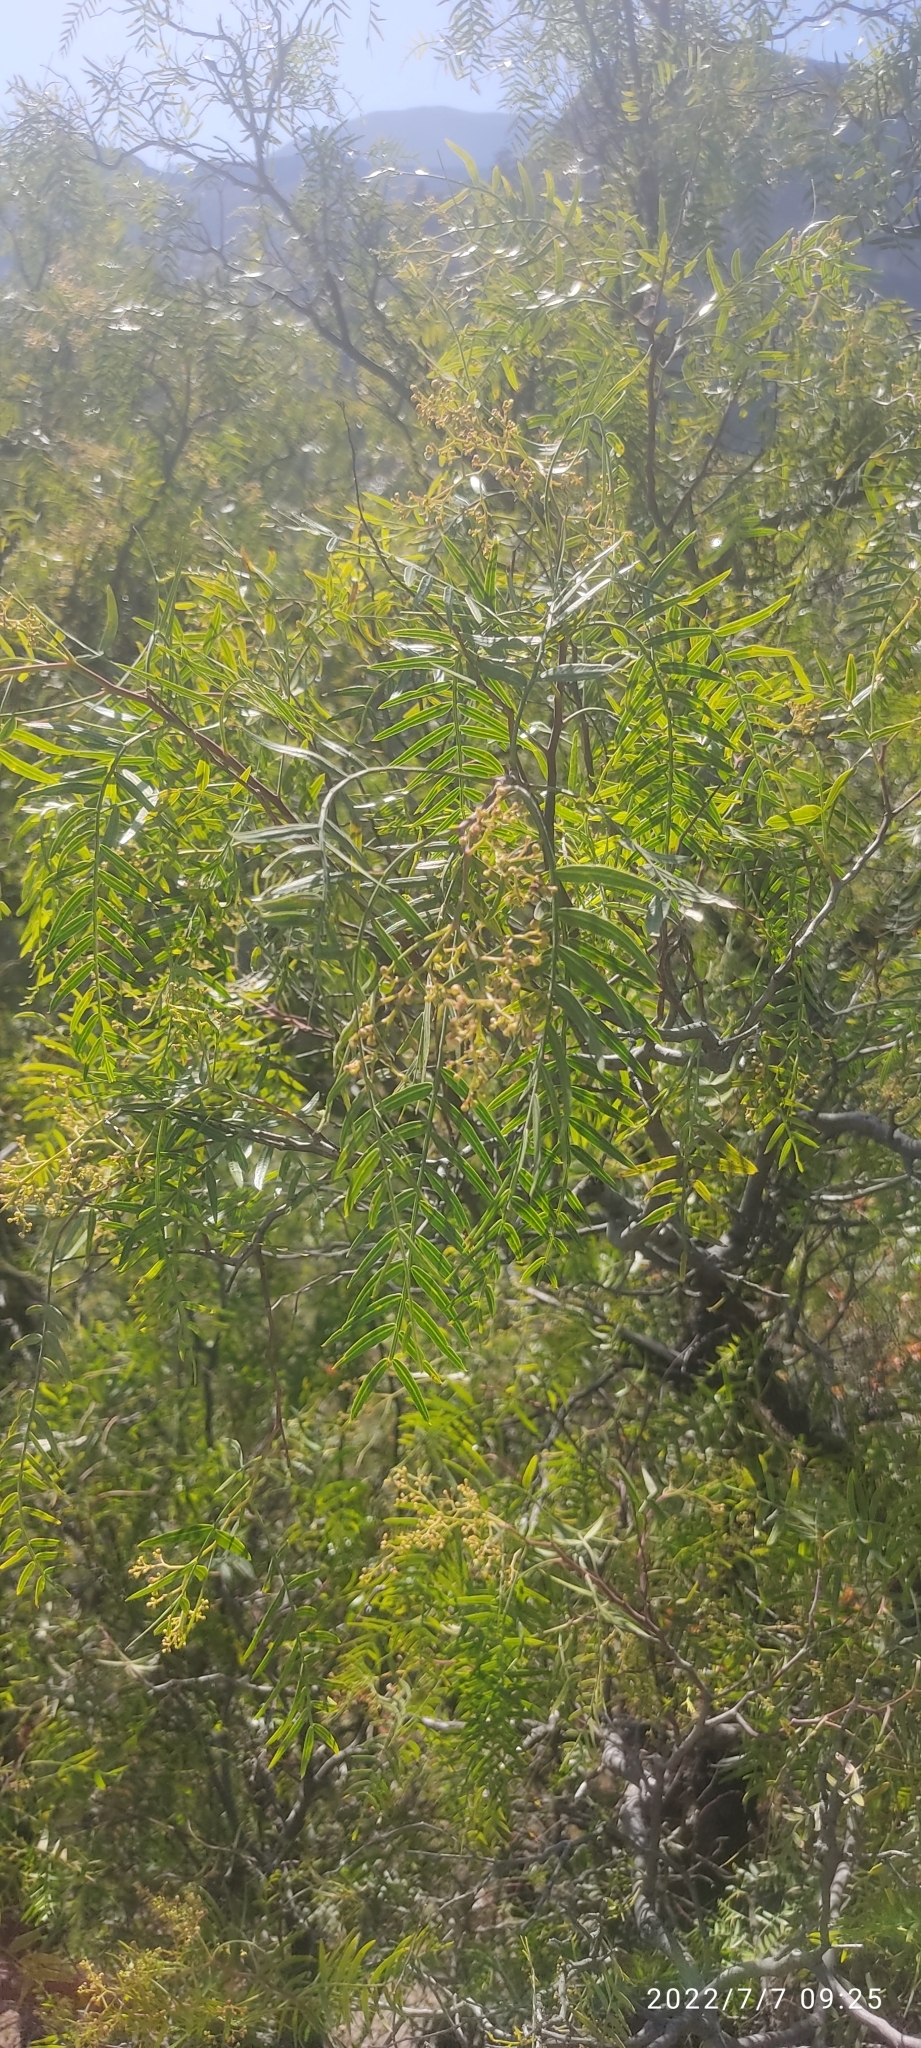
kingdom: Plantae
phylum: Tracheophyta
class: Magnoliopsida
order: Sapindales
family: Anacardiaceae
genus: Schinus
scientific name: Schinus molle
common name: Peruvian peppertree
